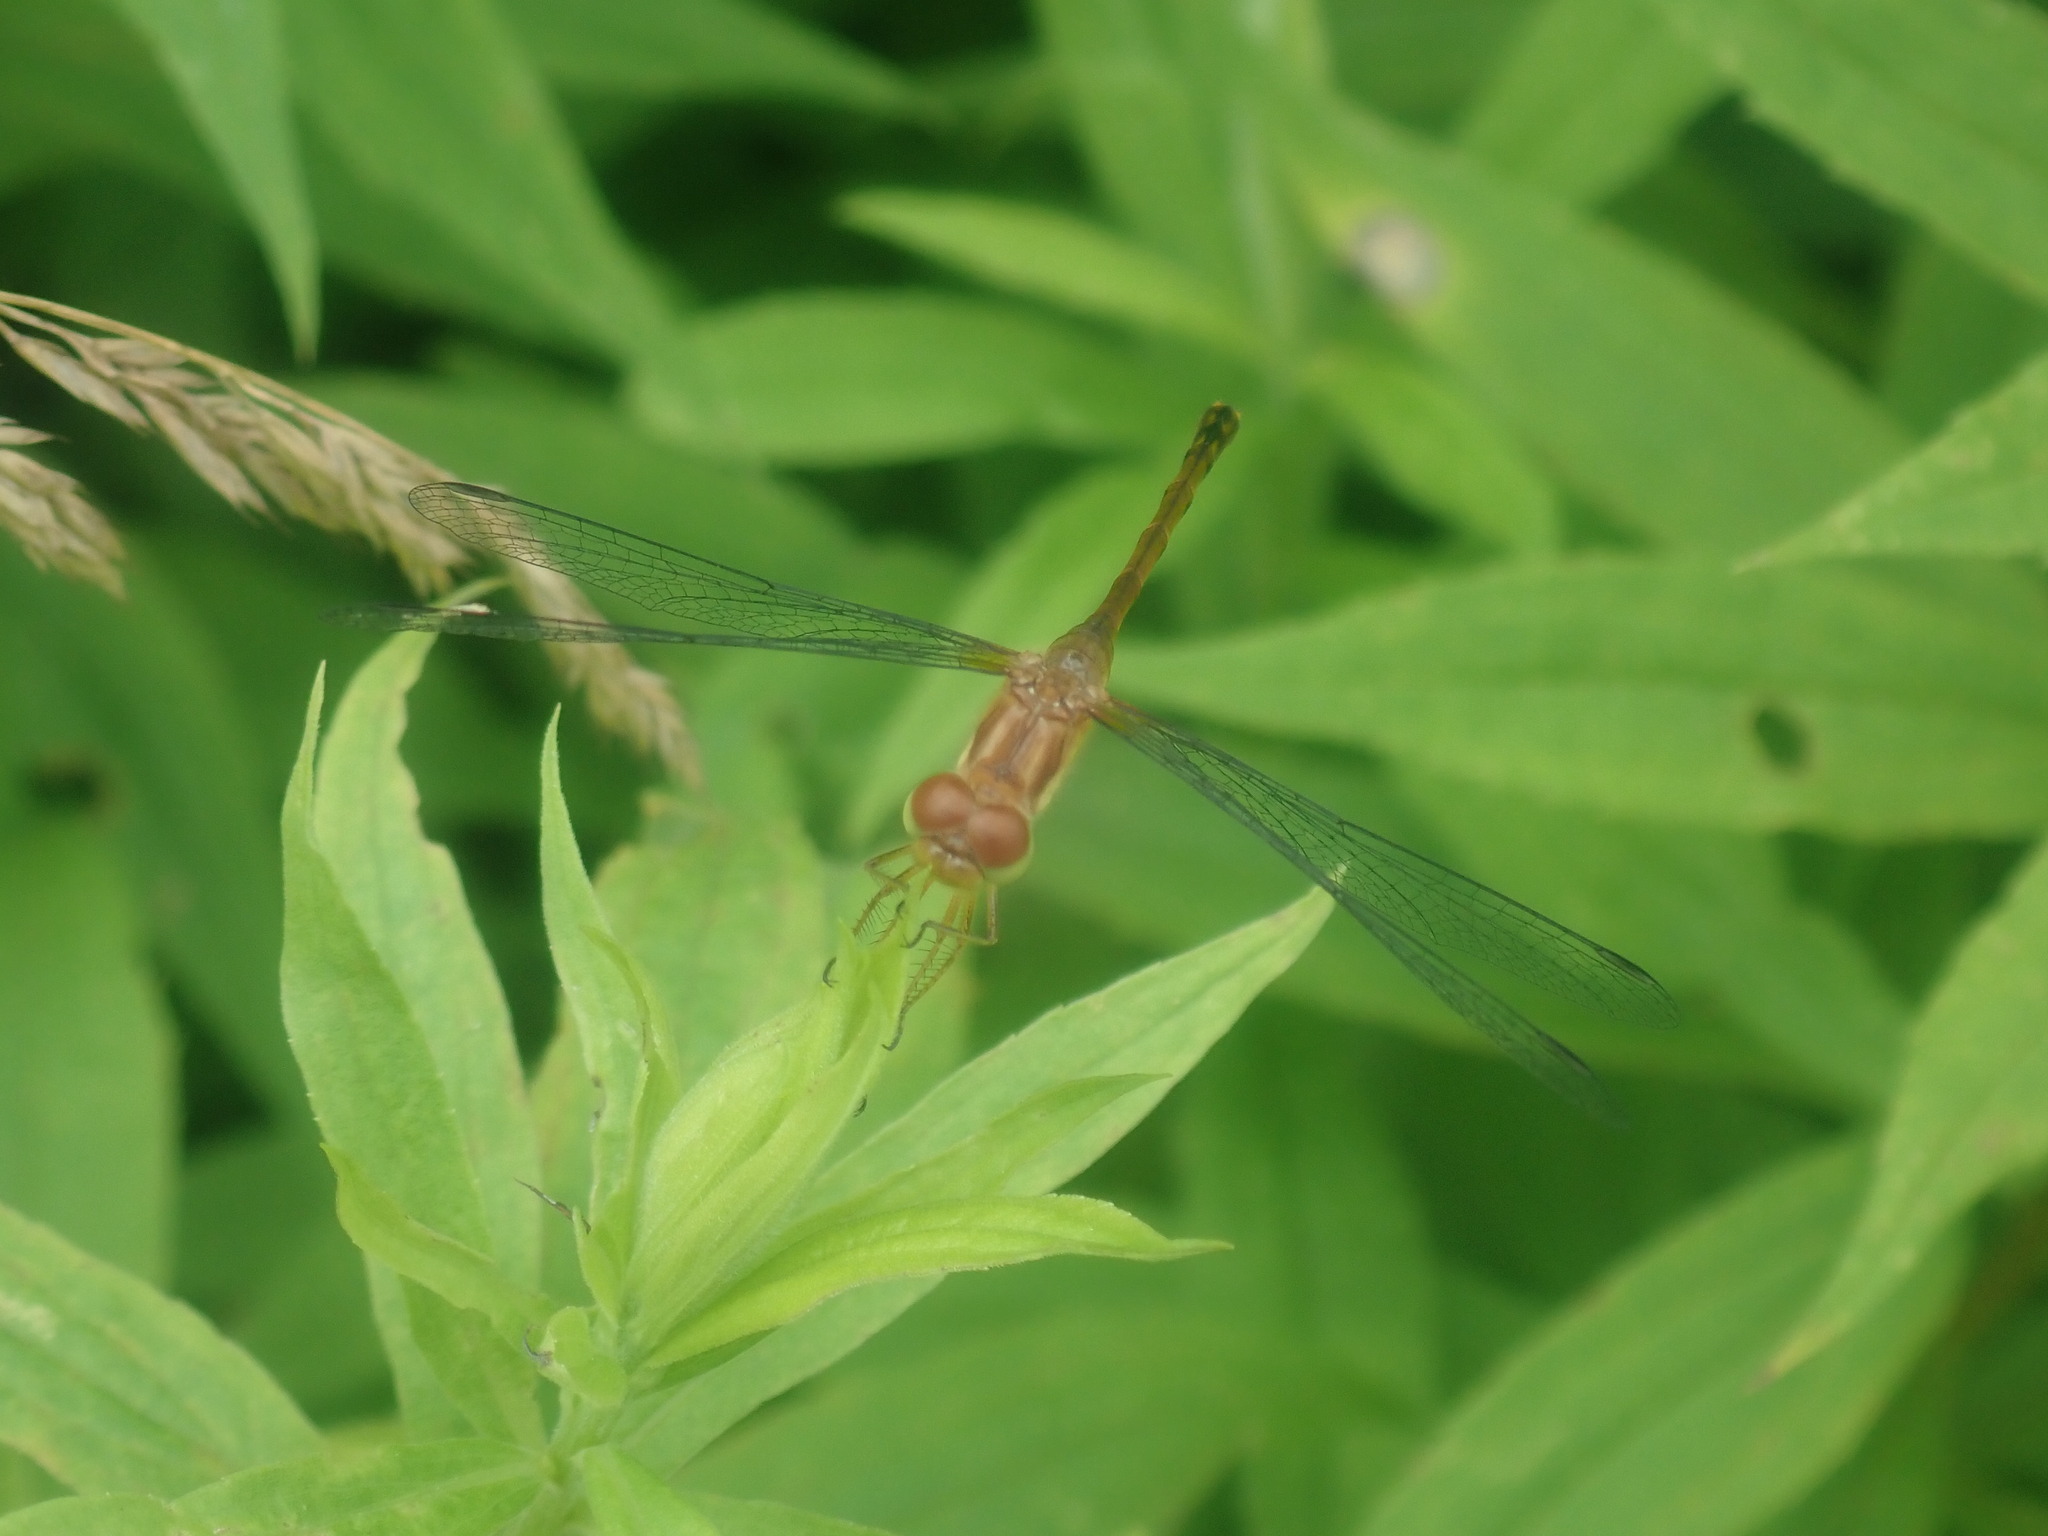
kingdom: Animalia
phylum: Arthropoda
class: Insecta
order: Odonata
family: Libellulidae
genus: Sympetrum
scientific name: Sympetrum vicinum
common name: Autumn meadowhawk
